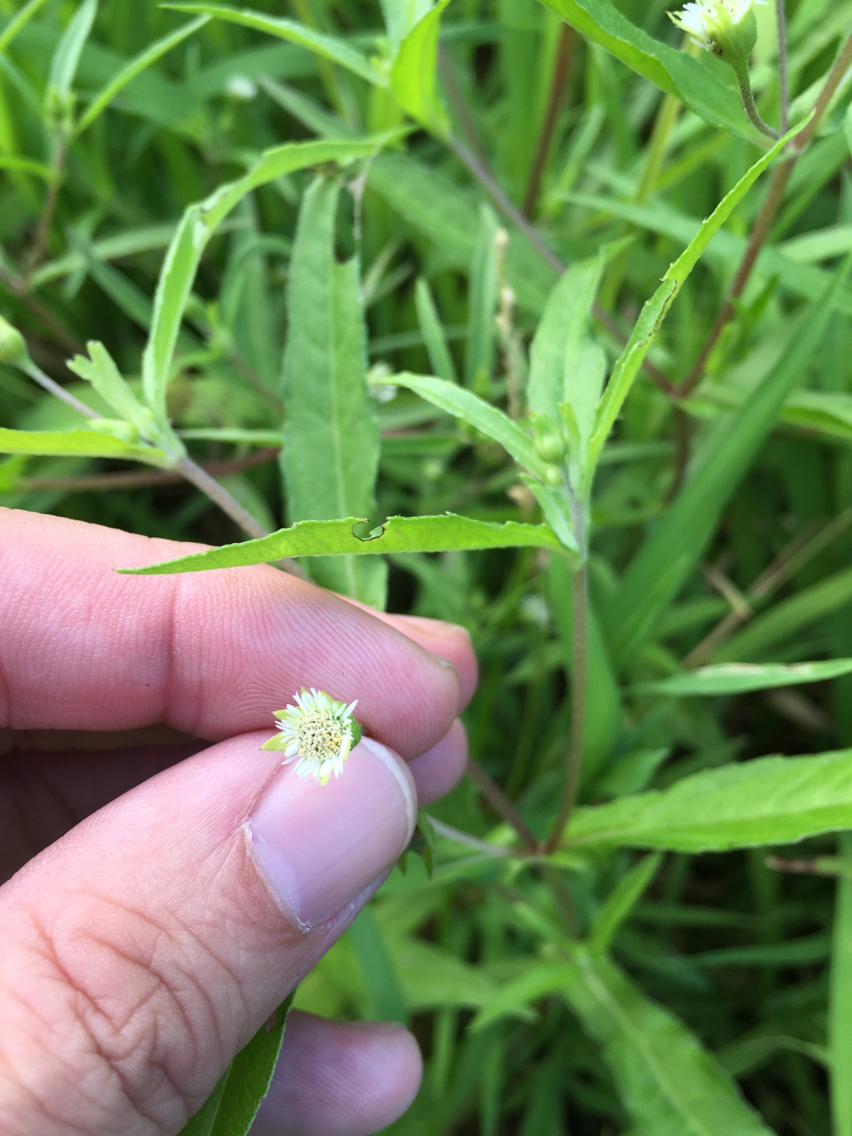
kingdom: Plantae
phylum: Tracheophyta
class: Magnoliopsida
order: Asterales
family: Asteraceae
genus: Eclipta
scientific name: Eclipta prostrata
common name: False daisy
